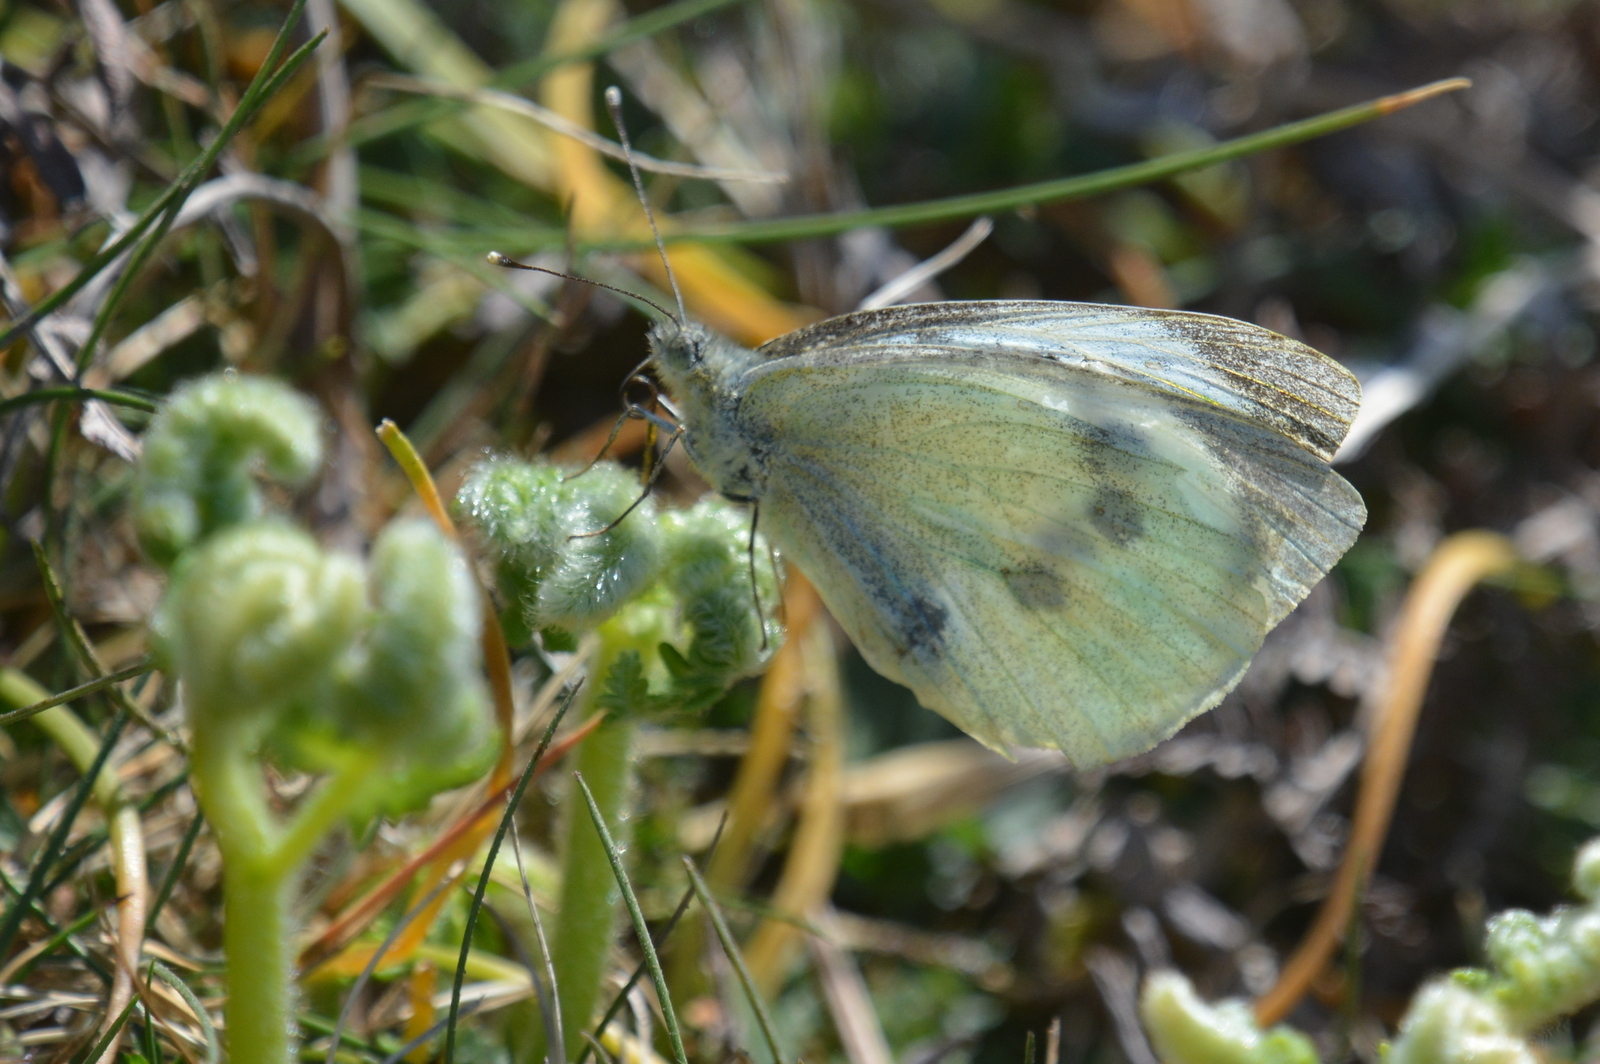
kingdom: Animalia
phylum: Arthropoda
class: Insecta
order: Lepidoptera
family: Pieridae
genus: Pieris
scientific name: Pieris brassicae
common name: Large white
